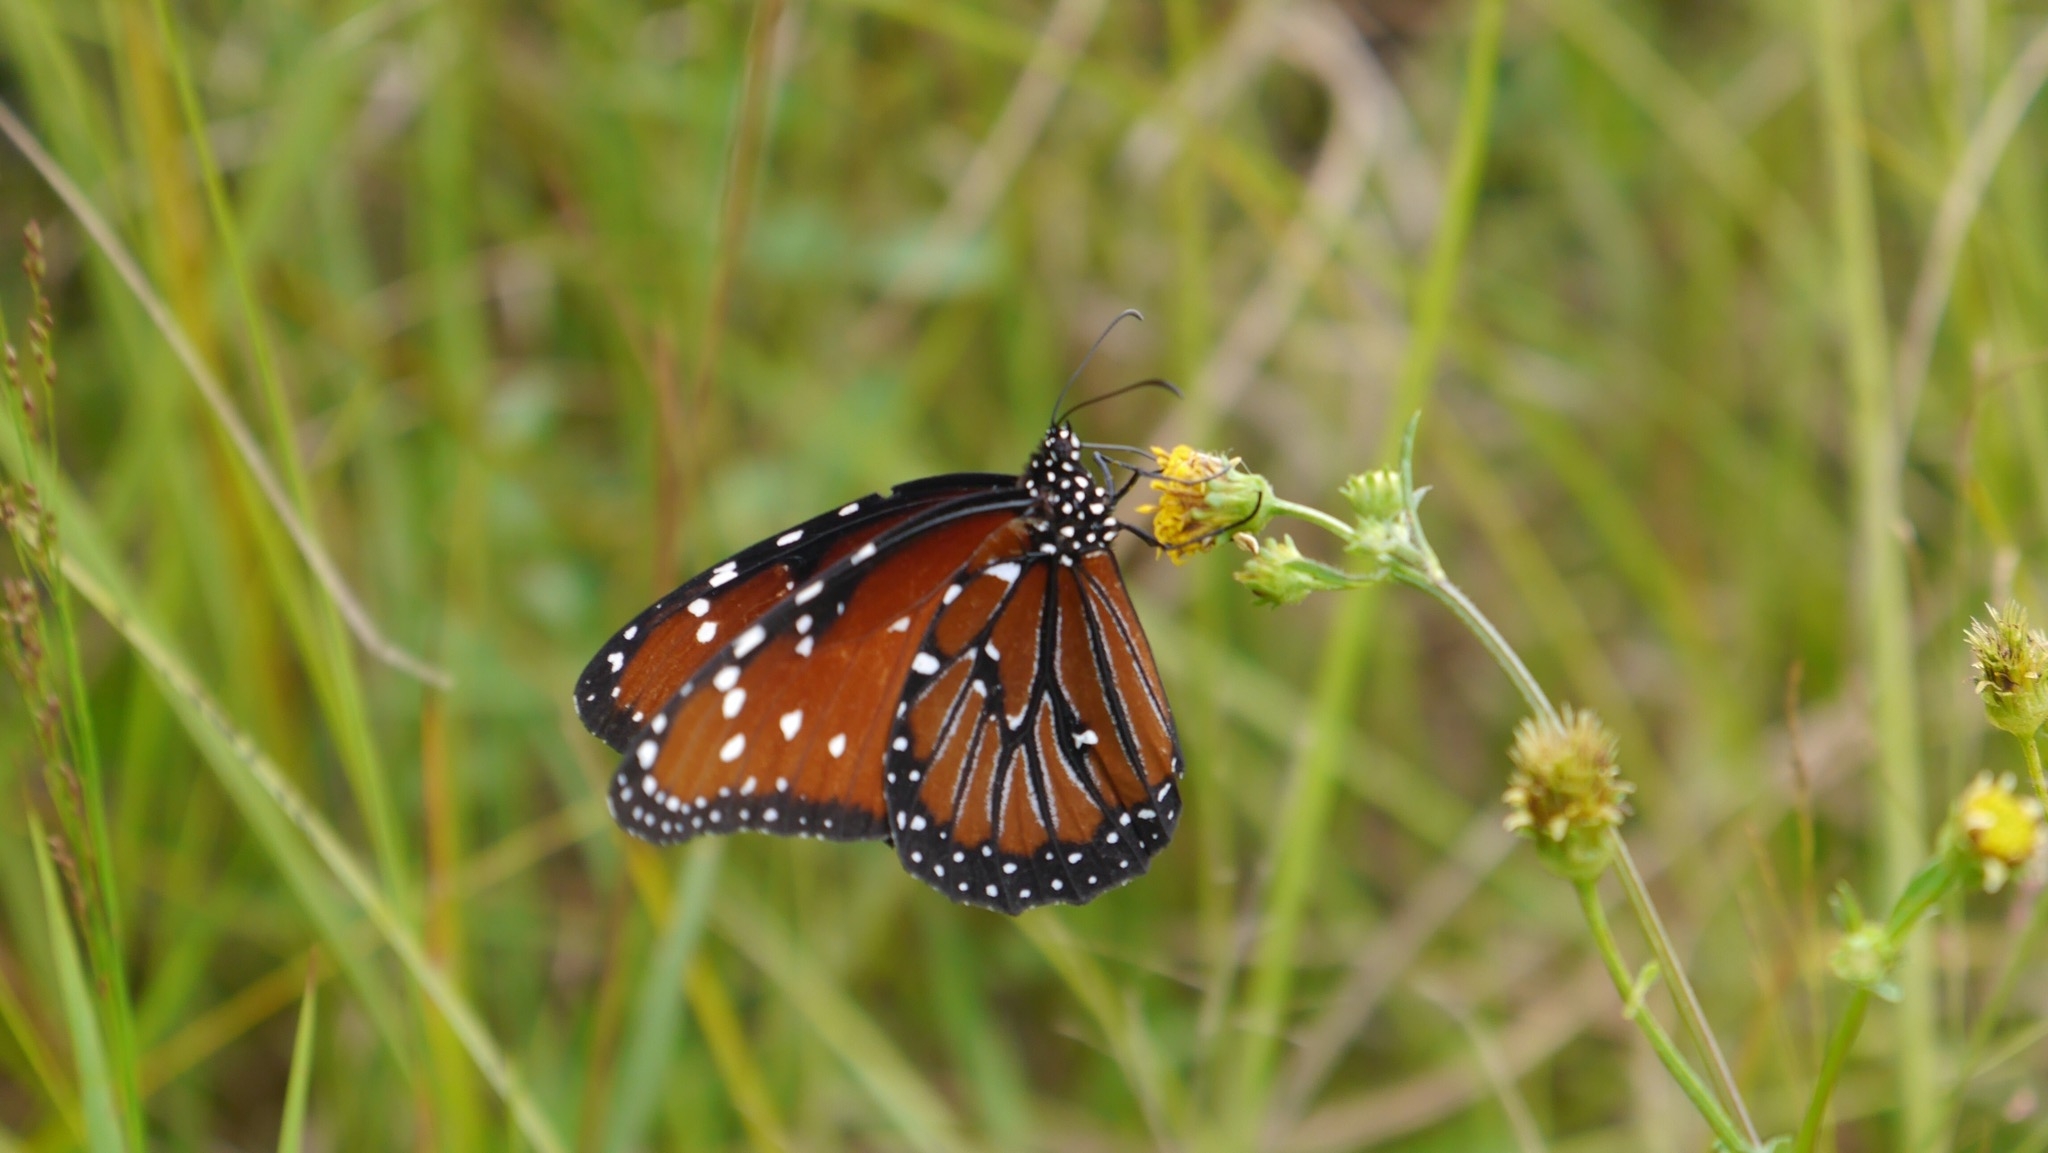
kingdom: Animalia
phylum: Arthropoda
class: Insecta
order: Lepidoptera
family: Nymphalidae
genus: Danaus
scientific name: Danaus gilippus
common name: Queen
